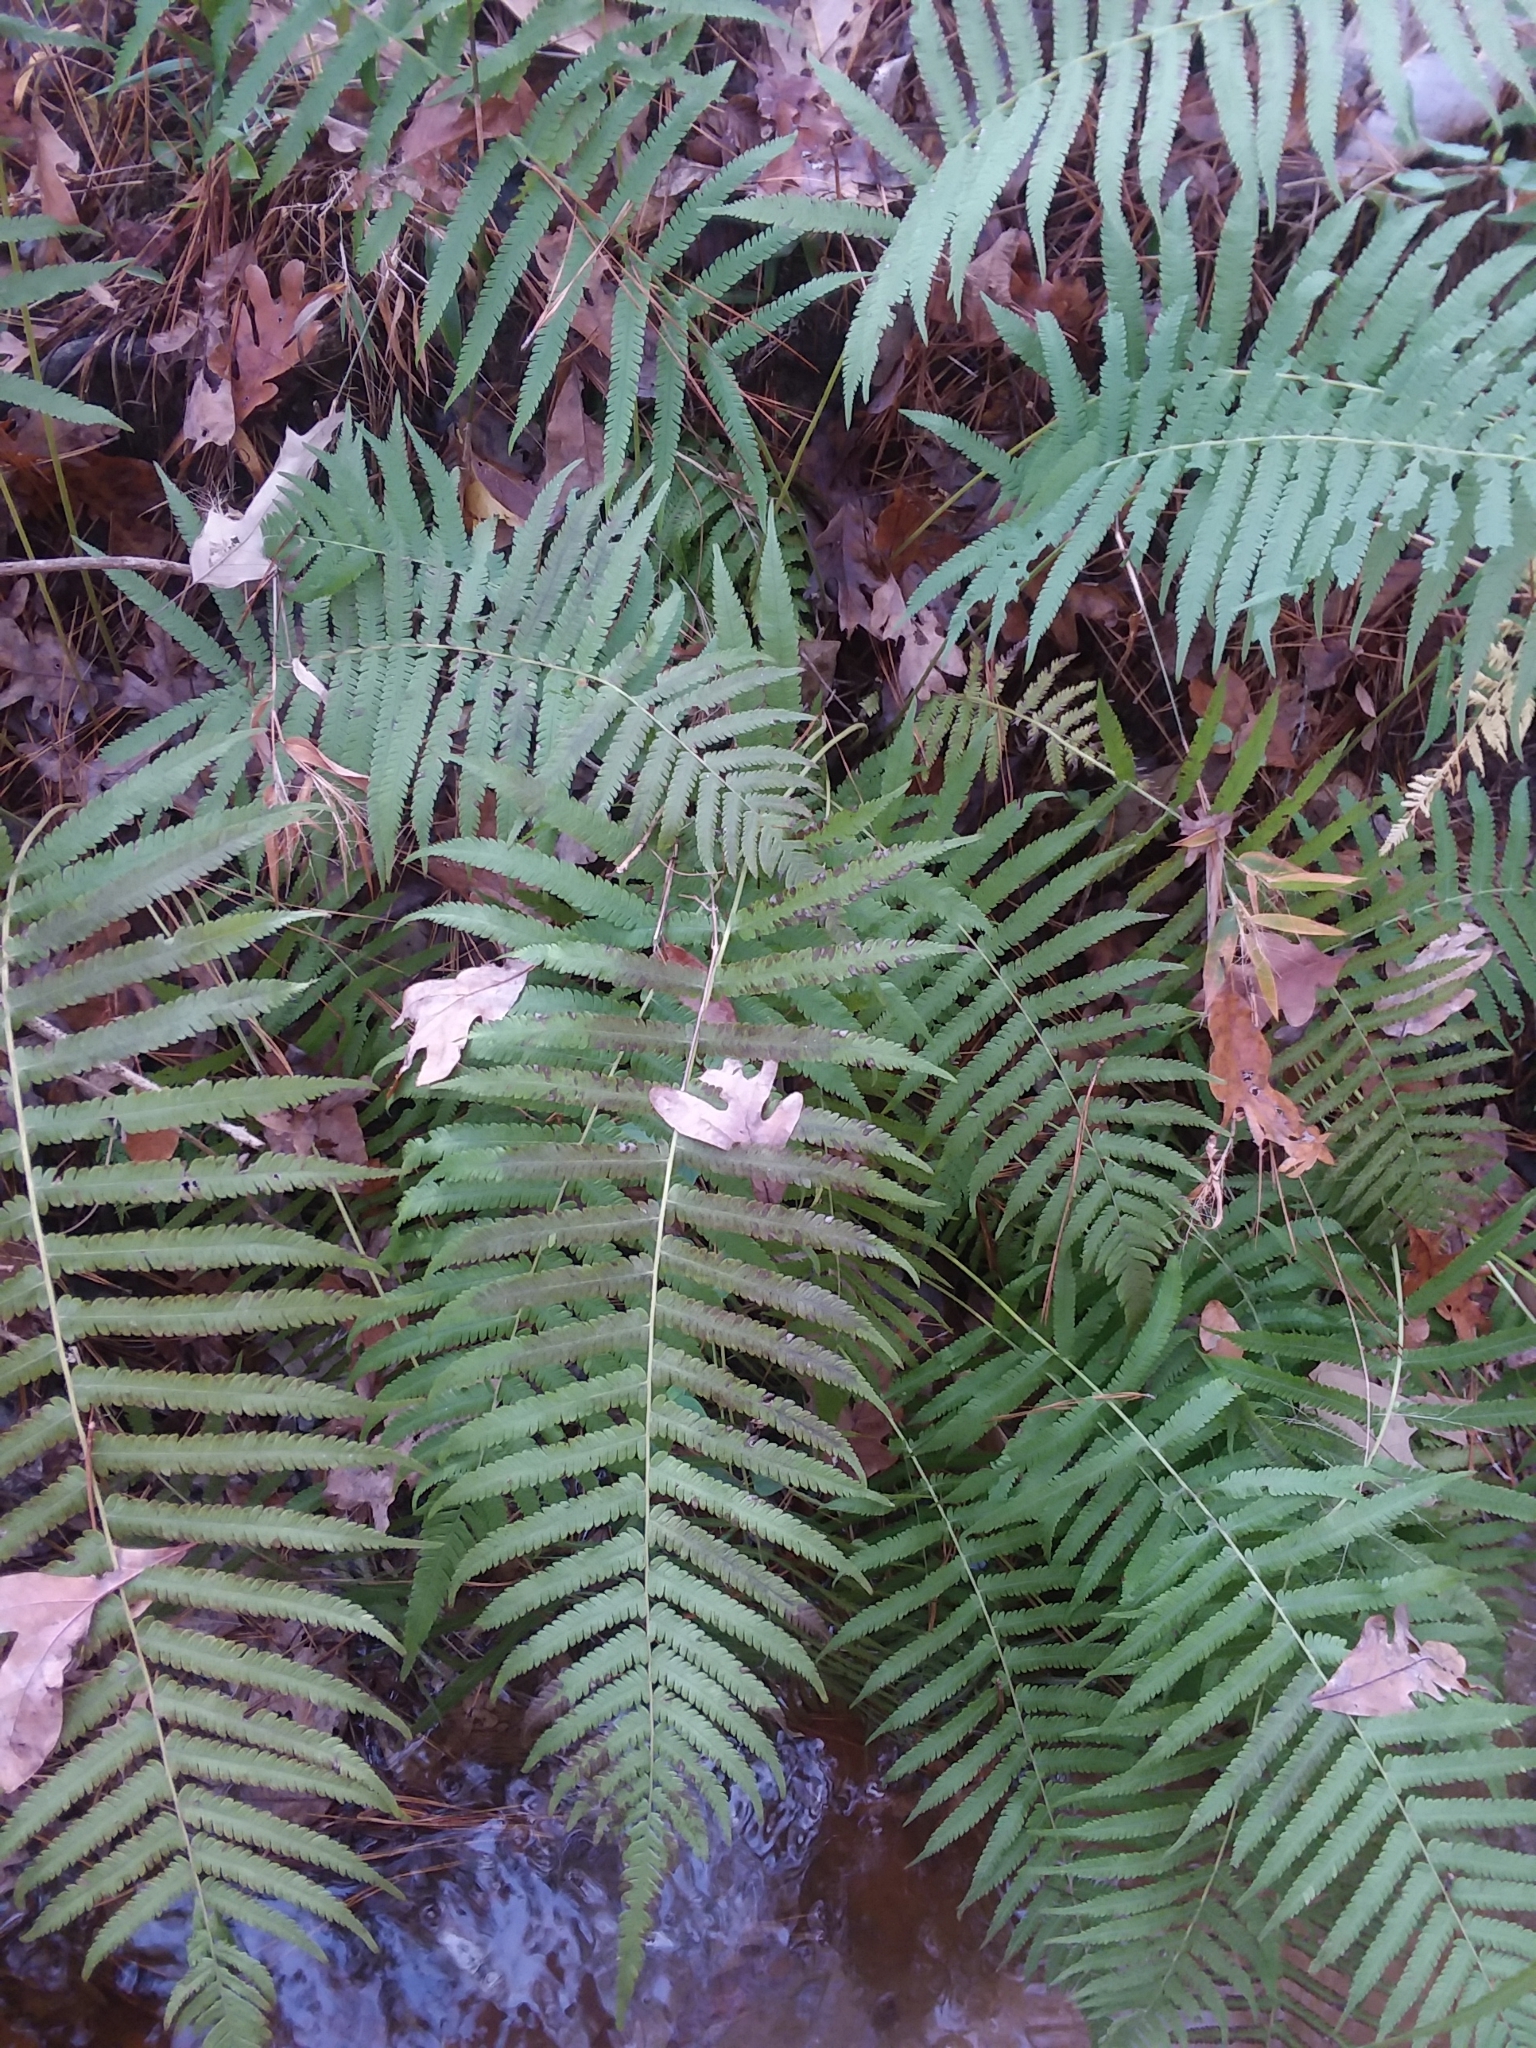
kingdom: Plantae
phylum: Tracheophyta
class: Polypodiopsida
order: Polypodiales
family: Thelypteridaceae
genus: Pelazoneuron
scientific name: Pelazoneuron kunthii
